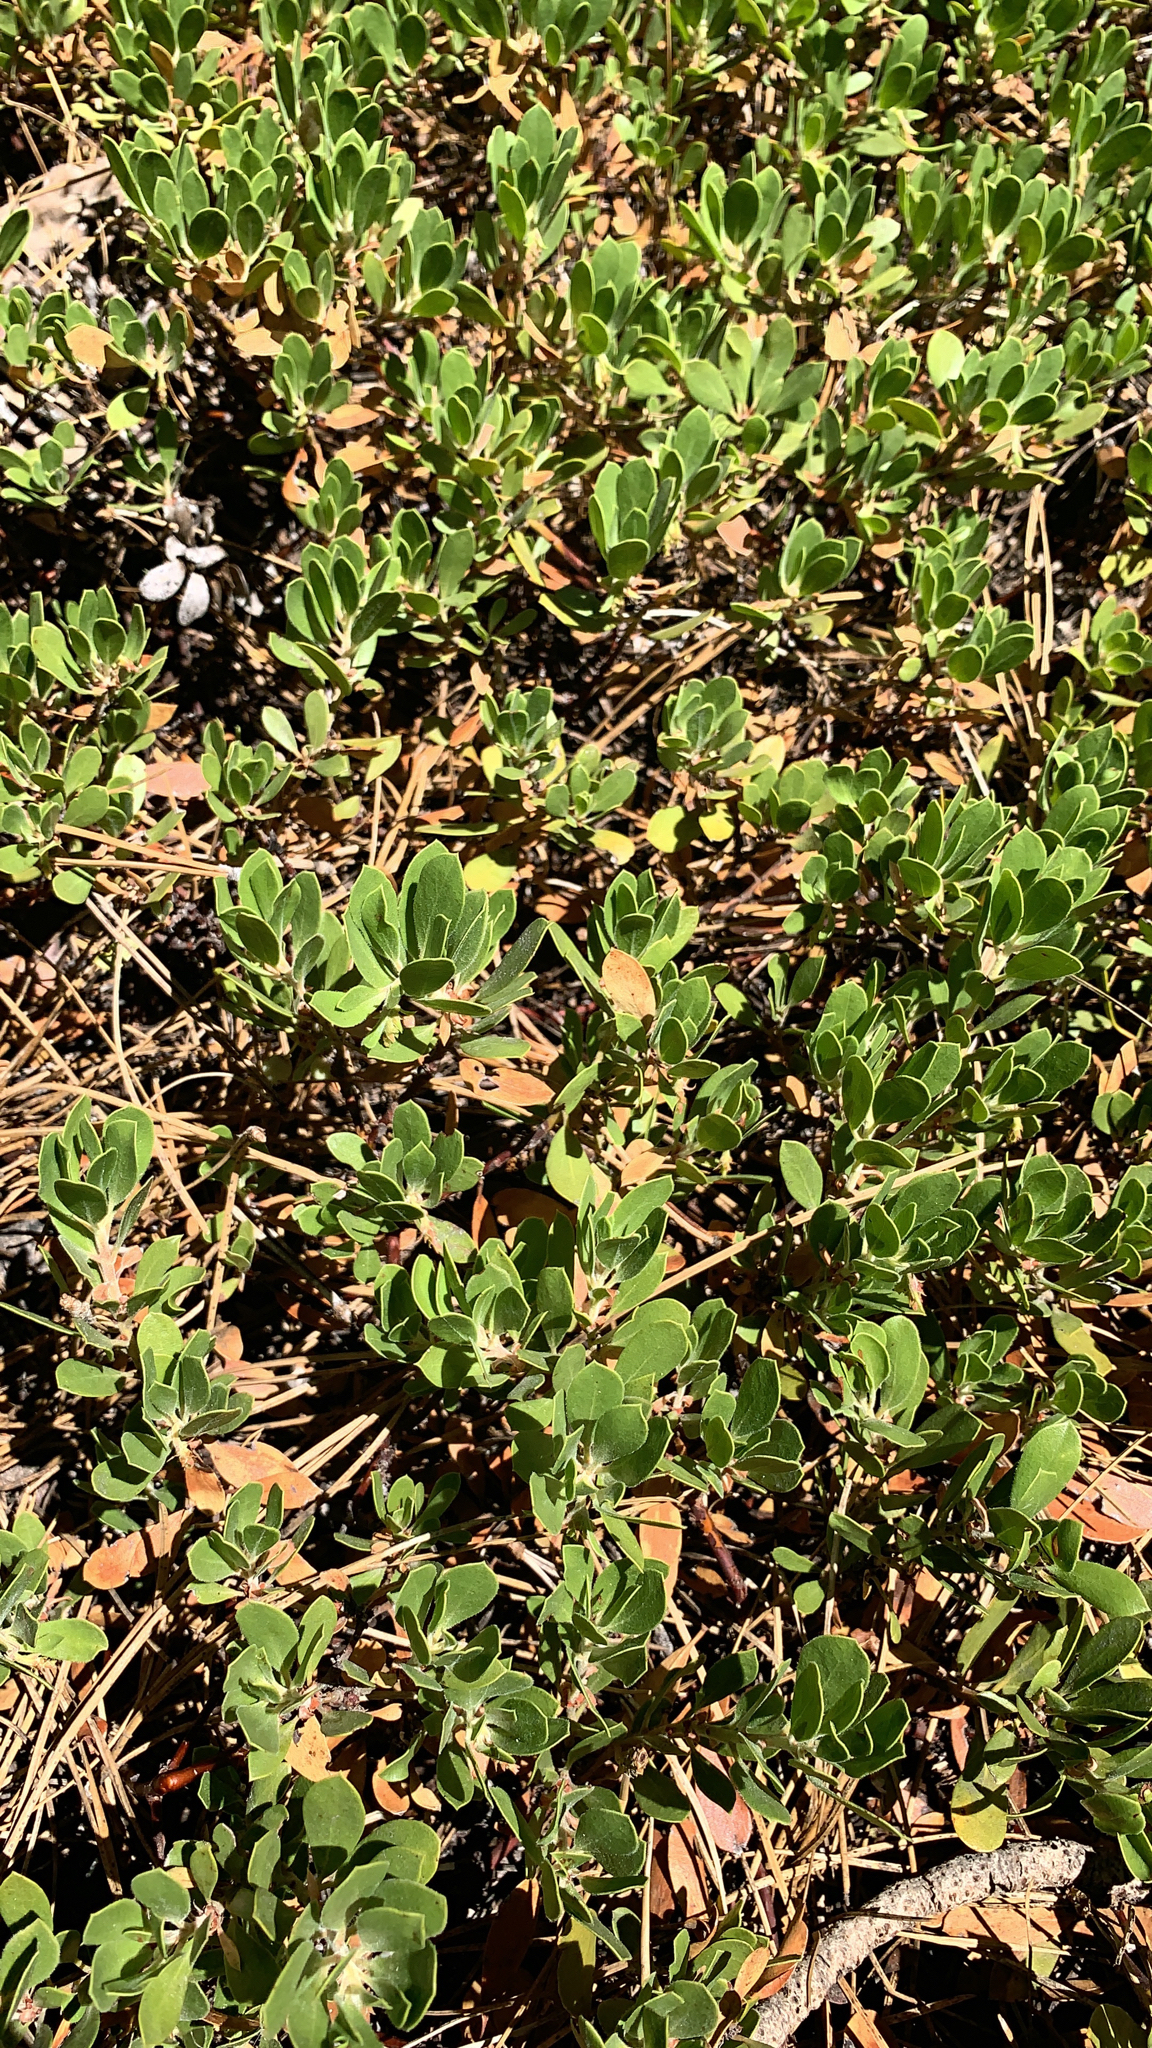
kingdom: Plantae
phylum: Tracheophyta
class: Magnoliopsida
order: Ericales
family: Ericaceae
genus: Arctostaphylos
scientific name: Arctostaphylos nevadensis
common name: Pinemat manzanita
